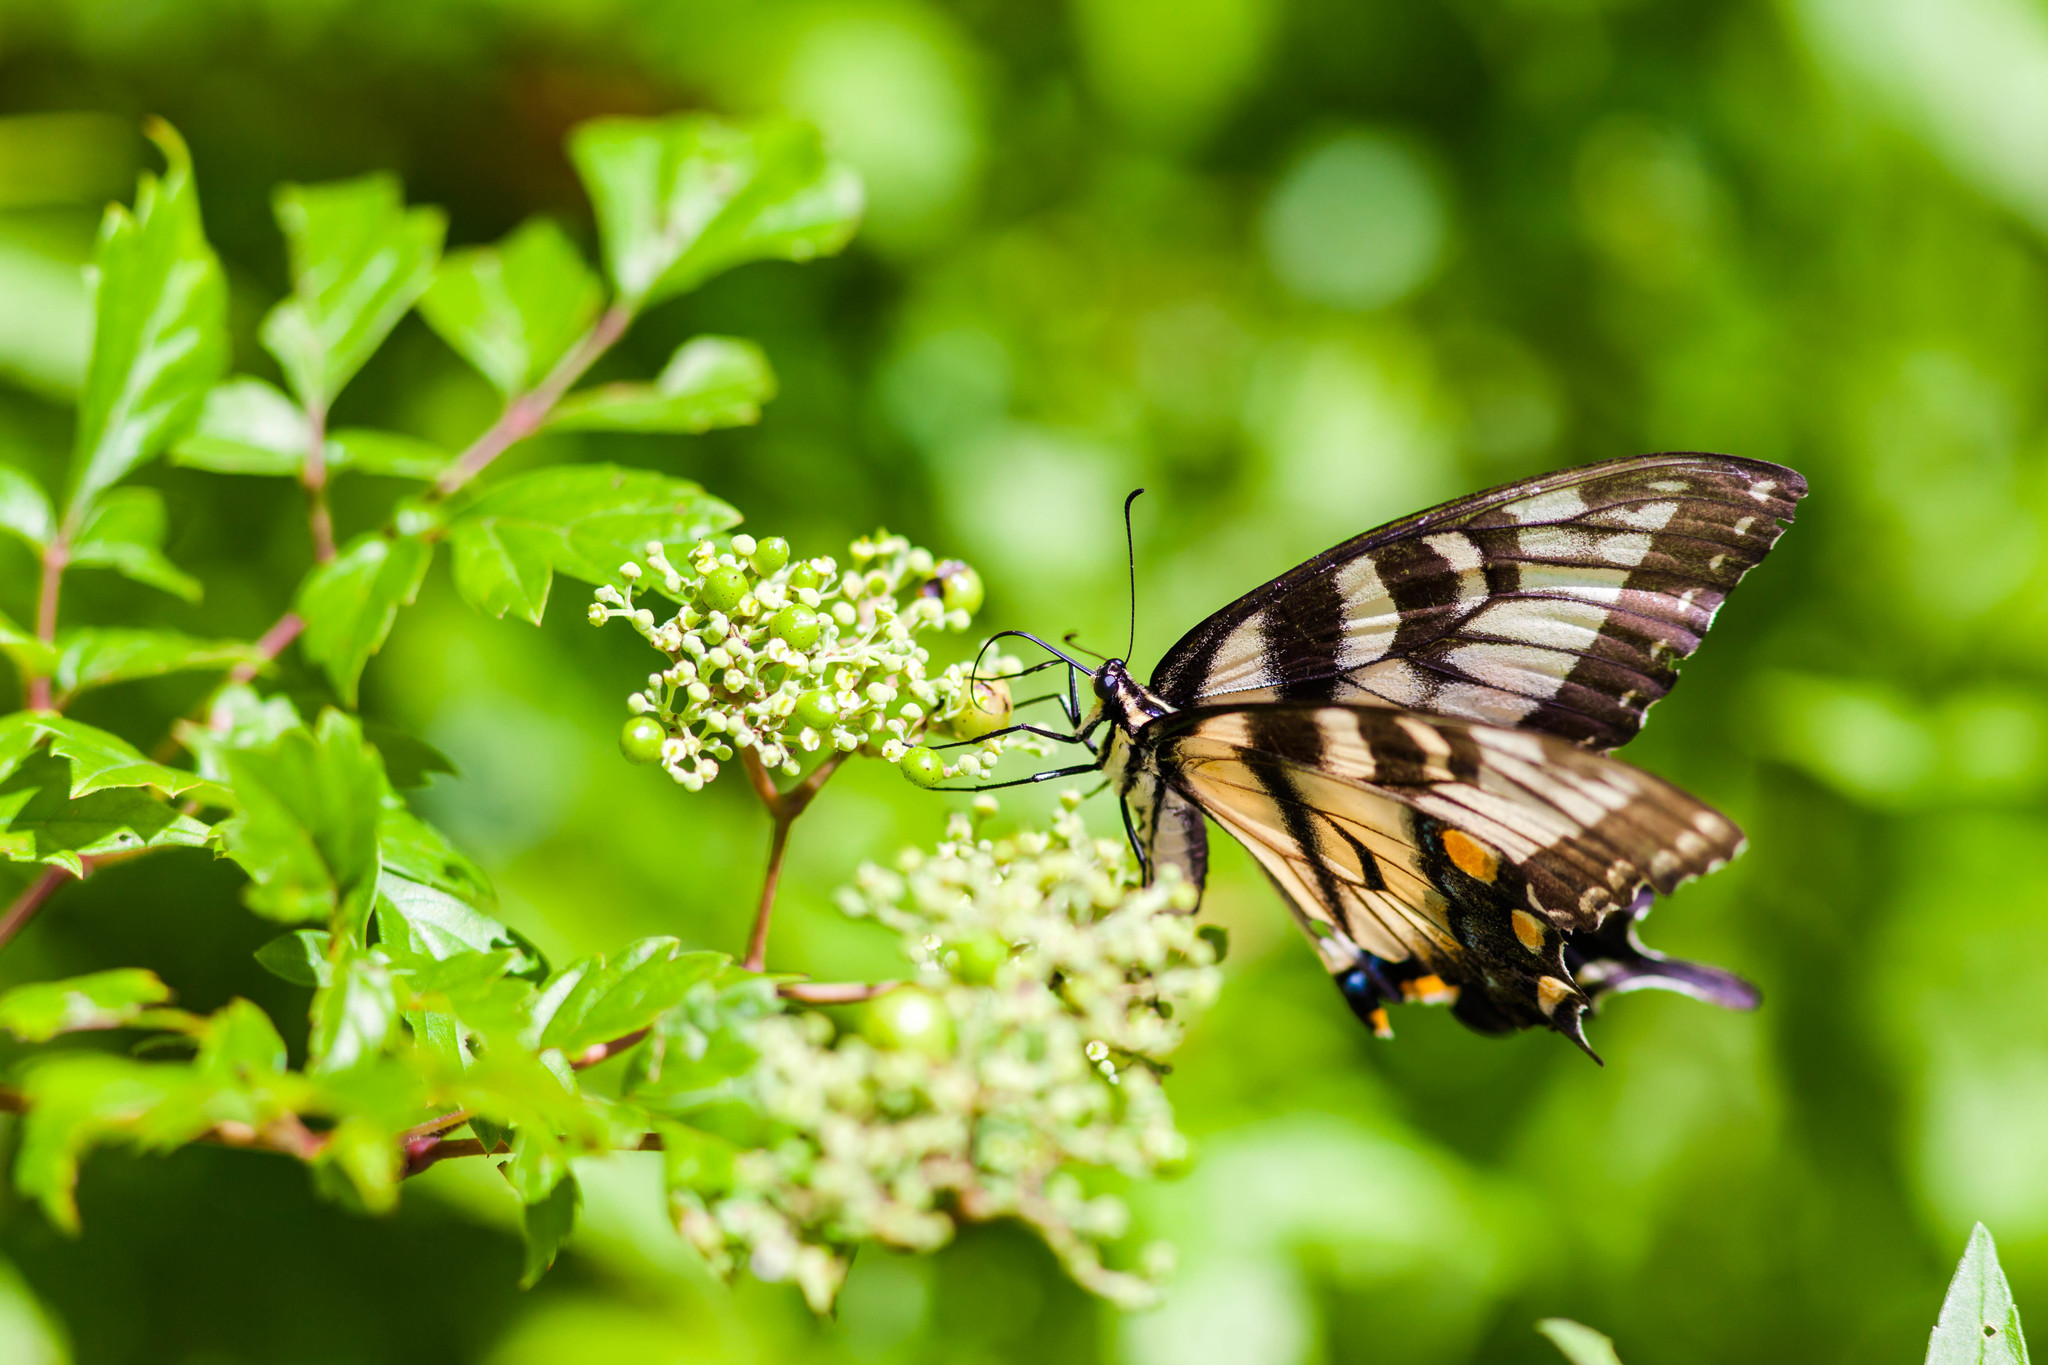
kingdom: Animalia
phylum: Arthropoda
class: Insecta
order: Lepidoptera
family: Papilionidae
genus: Papilio
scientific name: Papilio glaucus
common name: Tiger swallowtail
